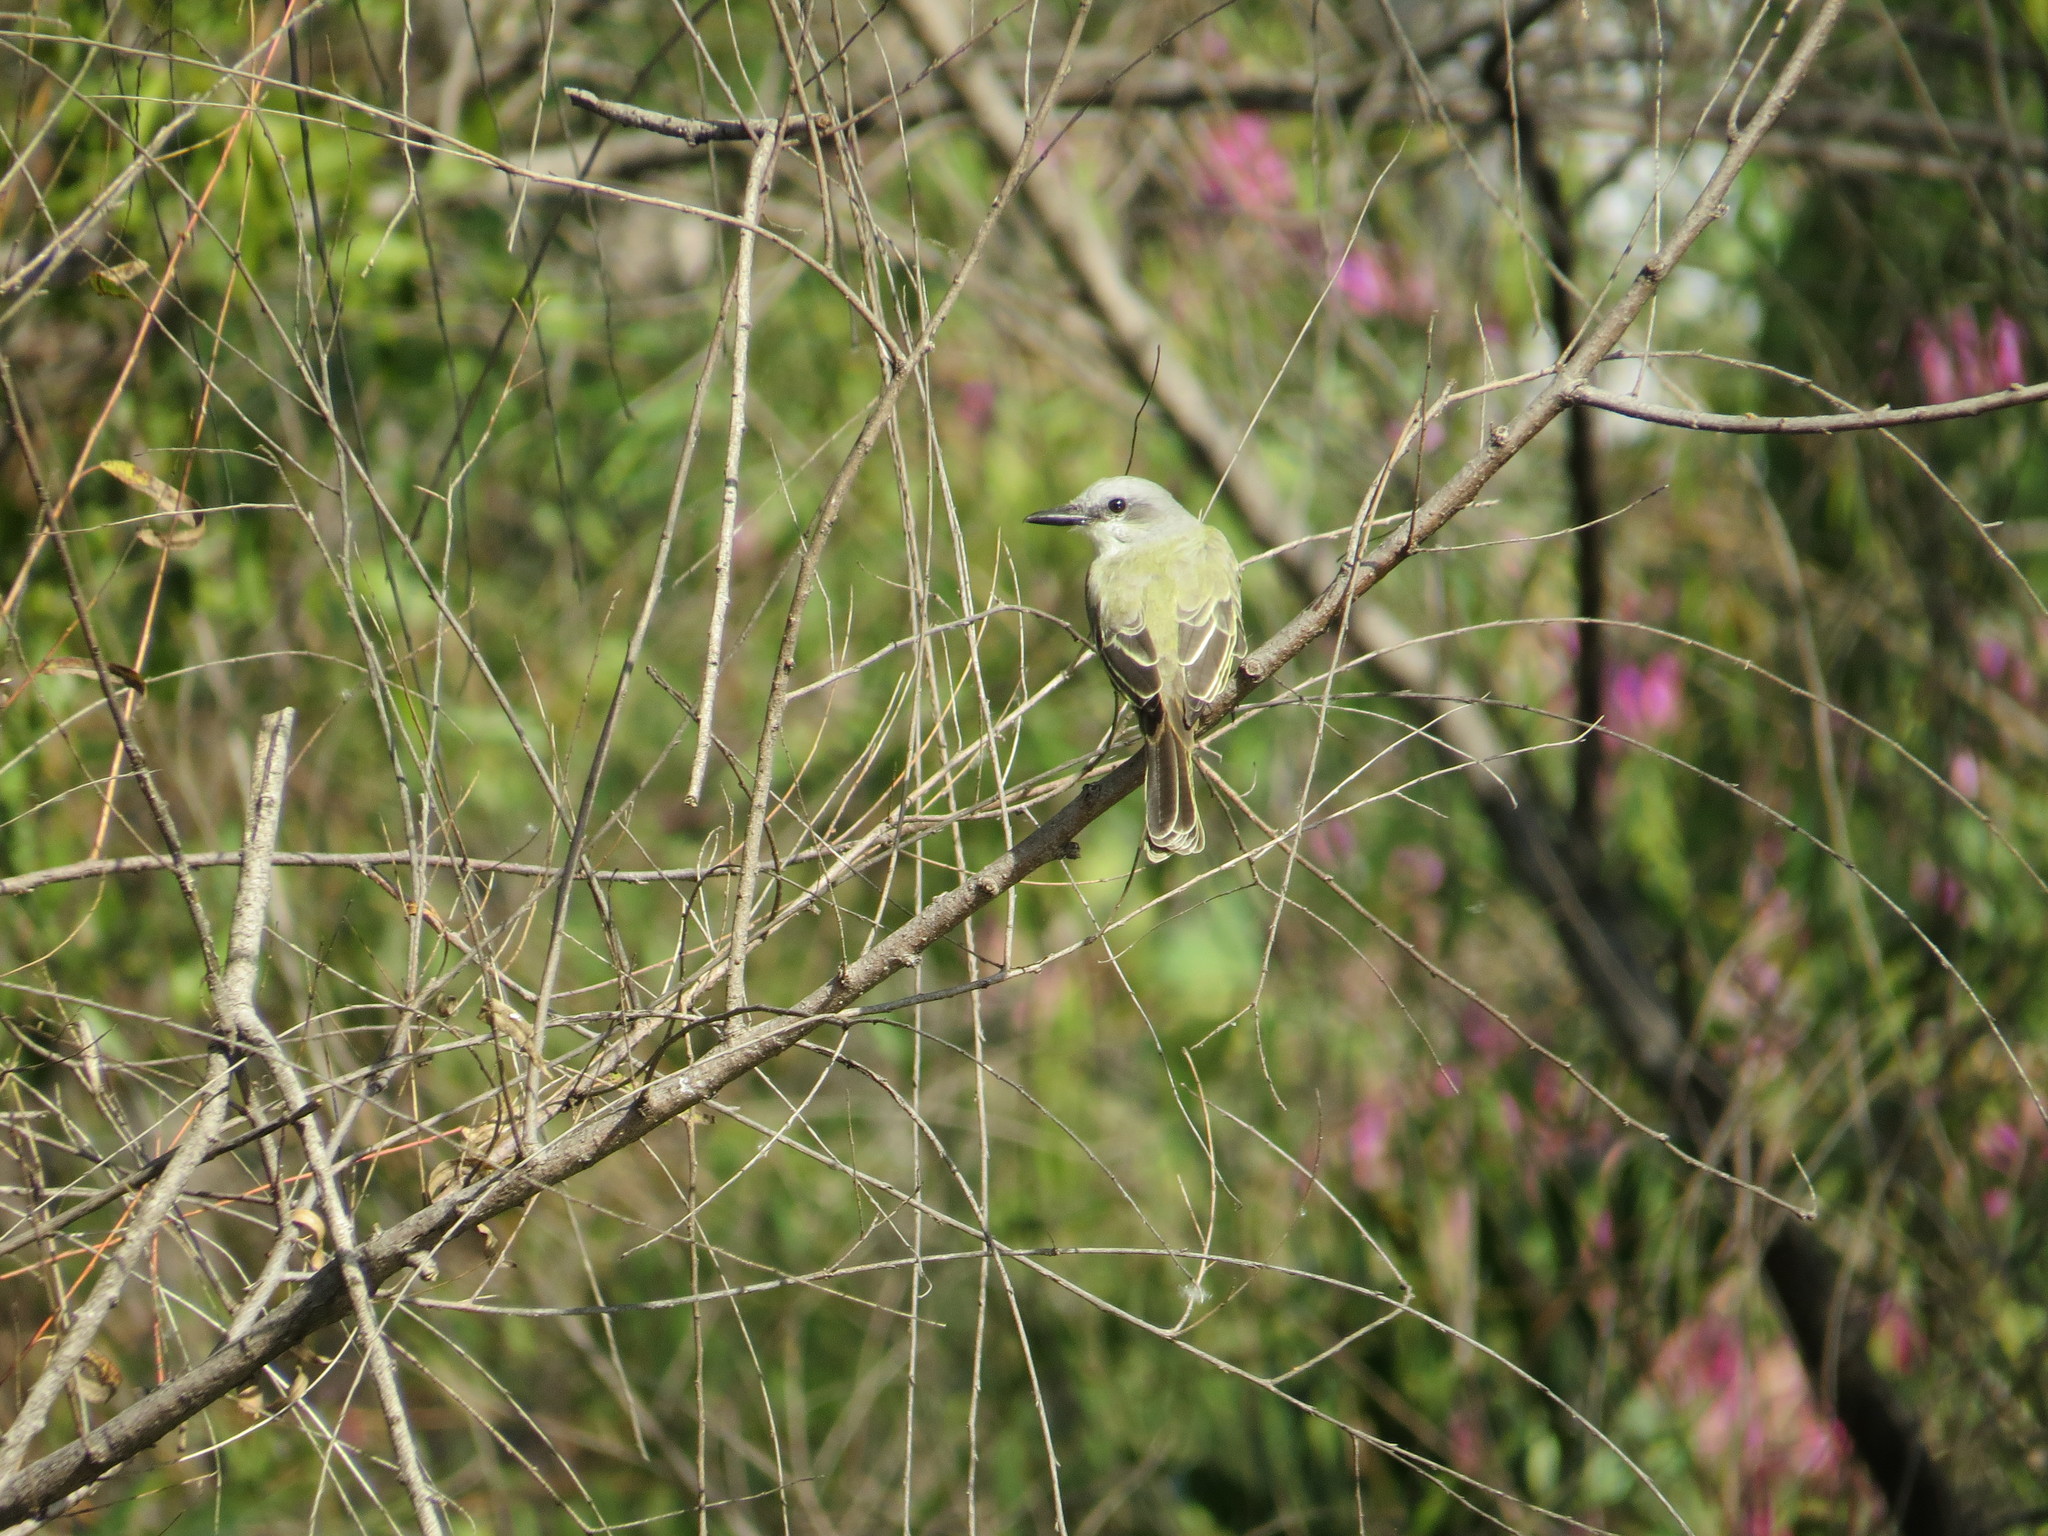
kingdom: Animalia
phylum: Chordata
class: Aves
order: Passeriformes
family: Tyrannidae
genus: Tyrannus
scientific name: Tyrannus melancholicus
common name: Tropical kingbird
